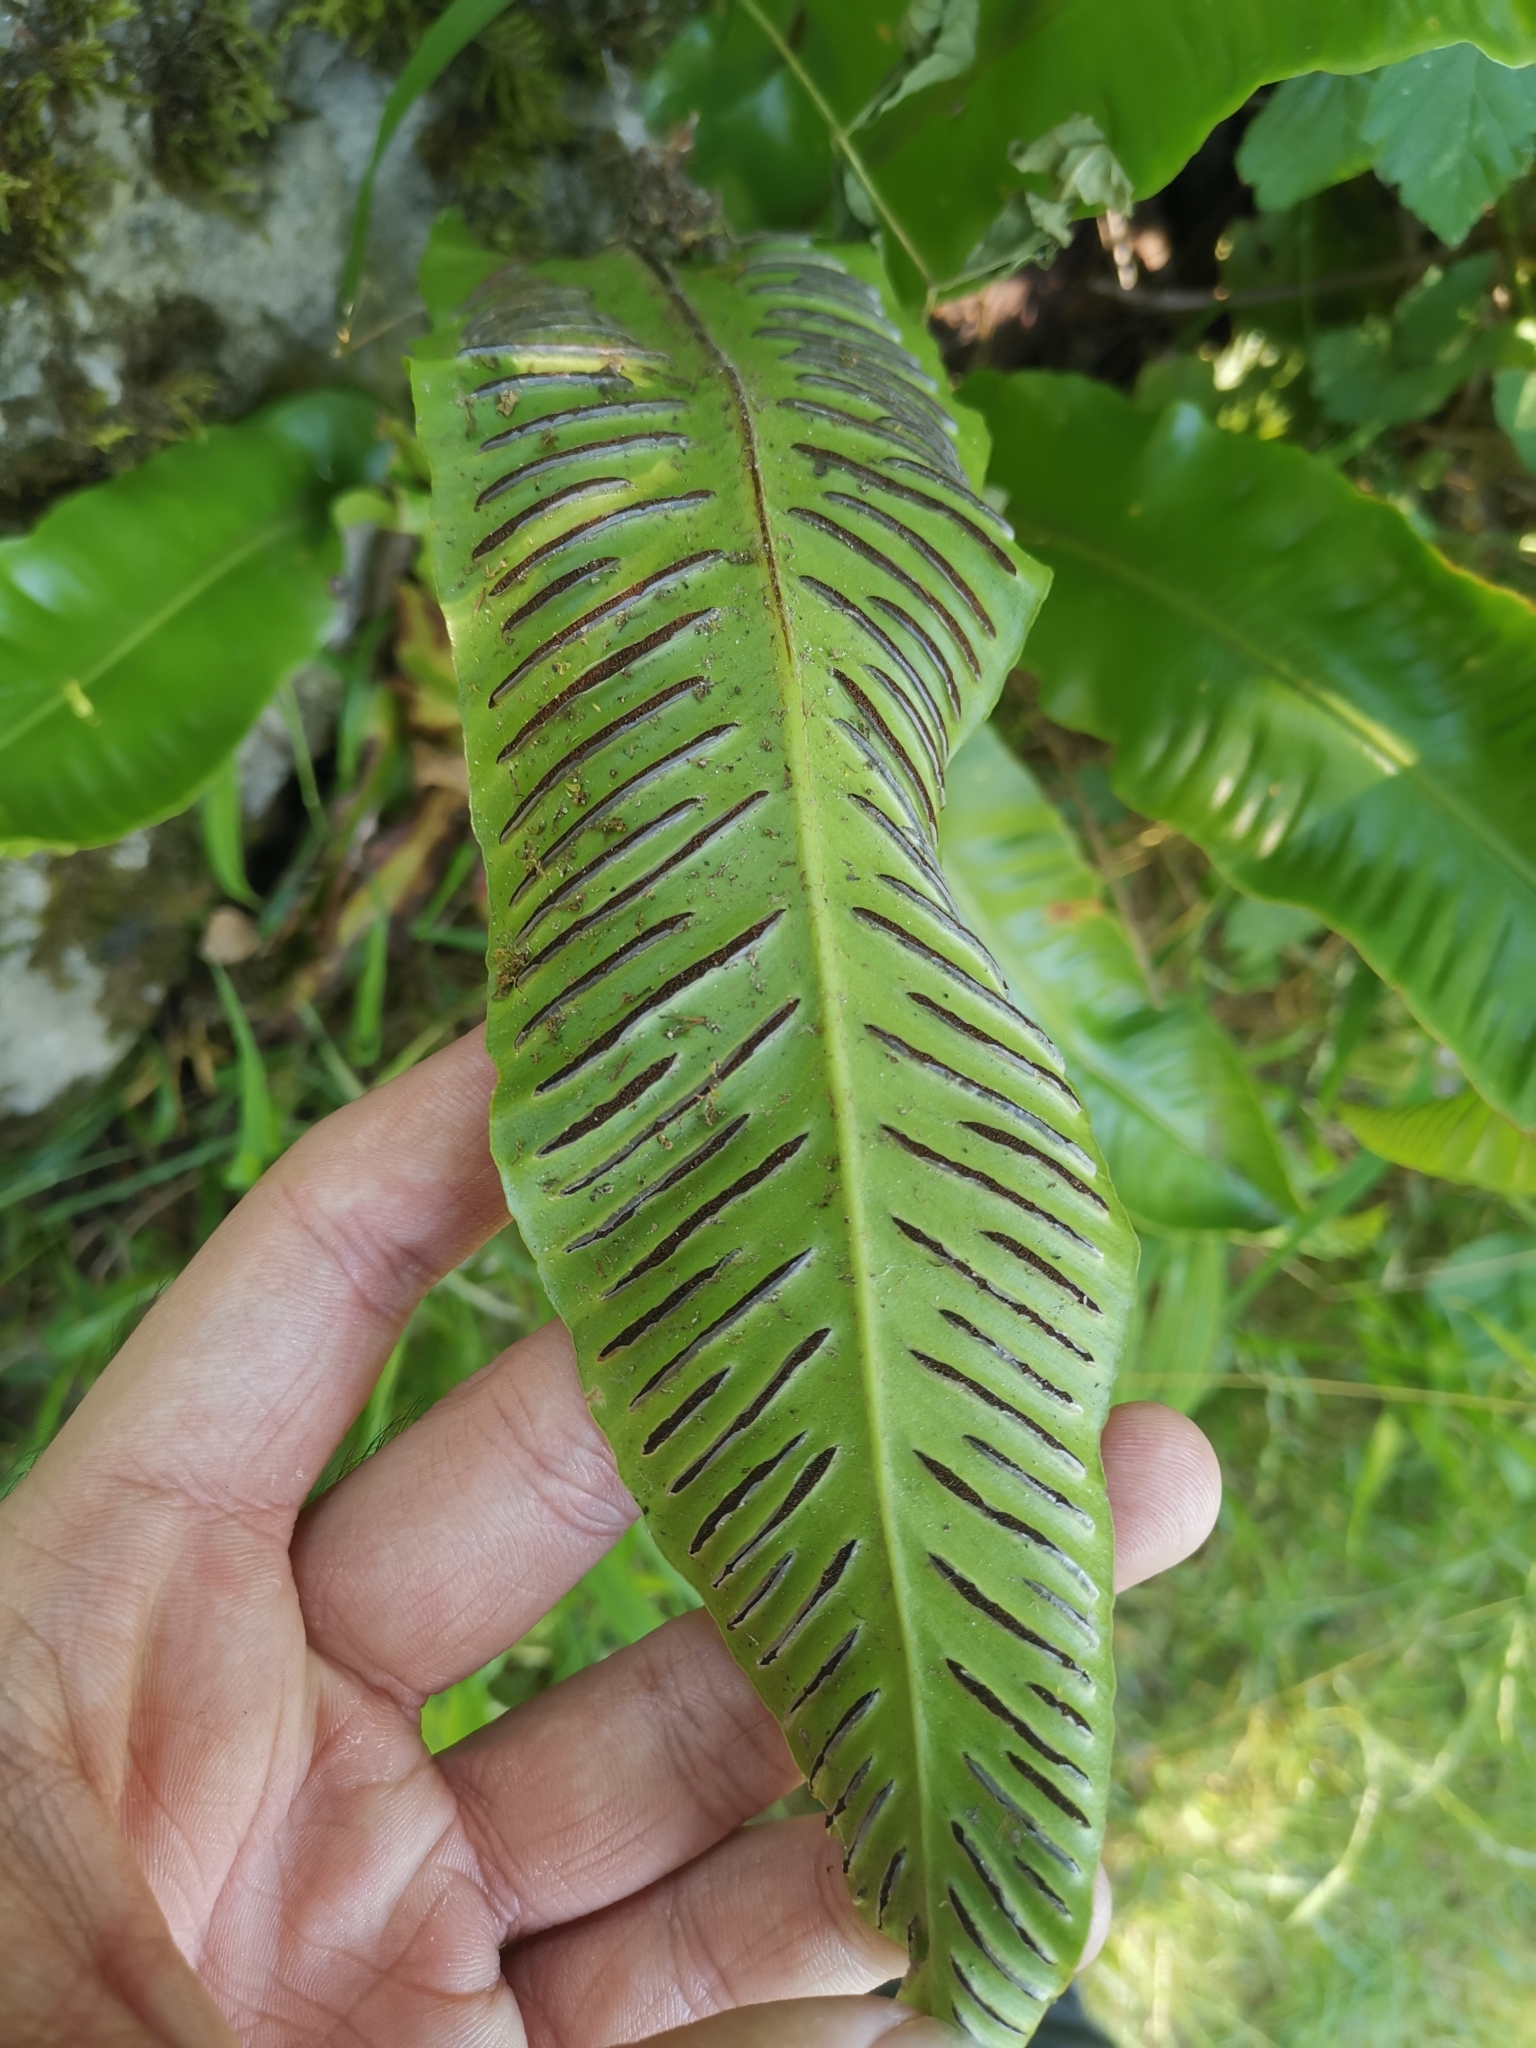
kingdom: Plantae
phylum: Tracheophyta
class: Polypodiopsida
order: Polypodiales
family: Aspleniaceae
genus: Asplenium
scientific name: Asplenium scolopendrium
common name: Hart's-tongue fern
